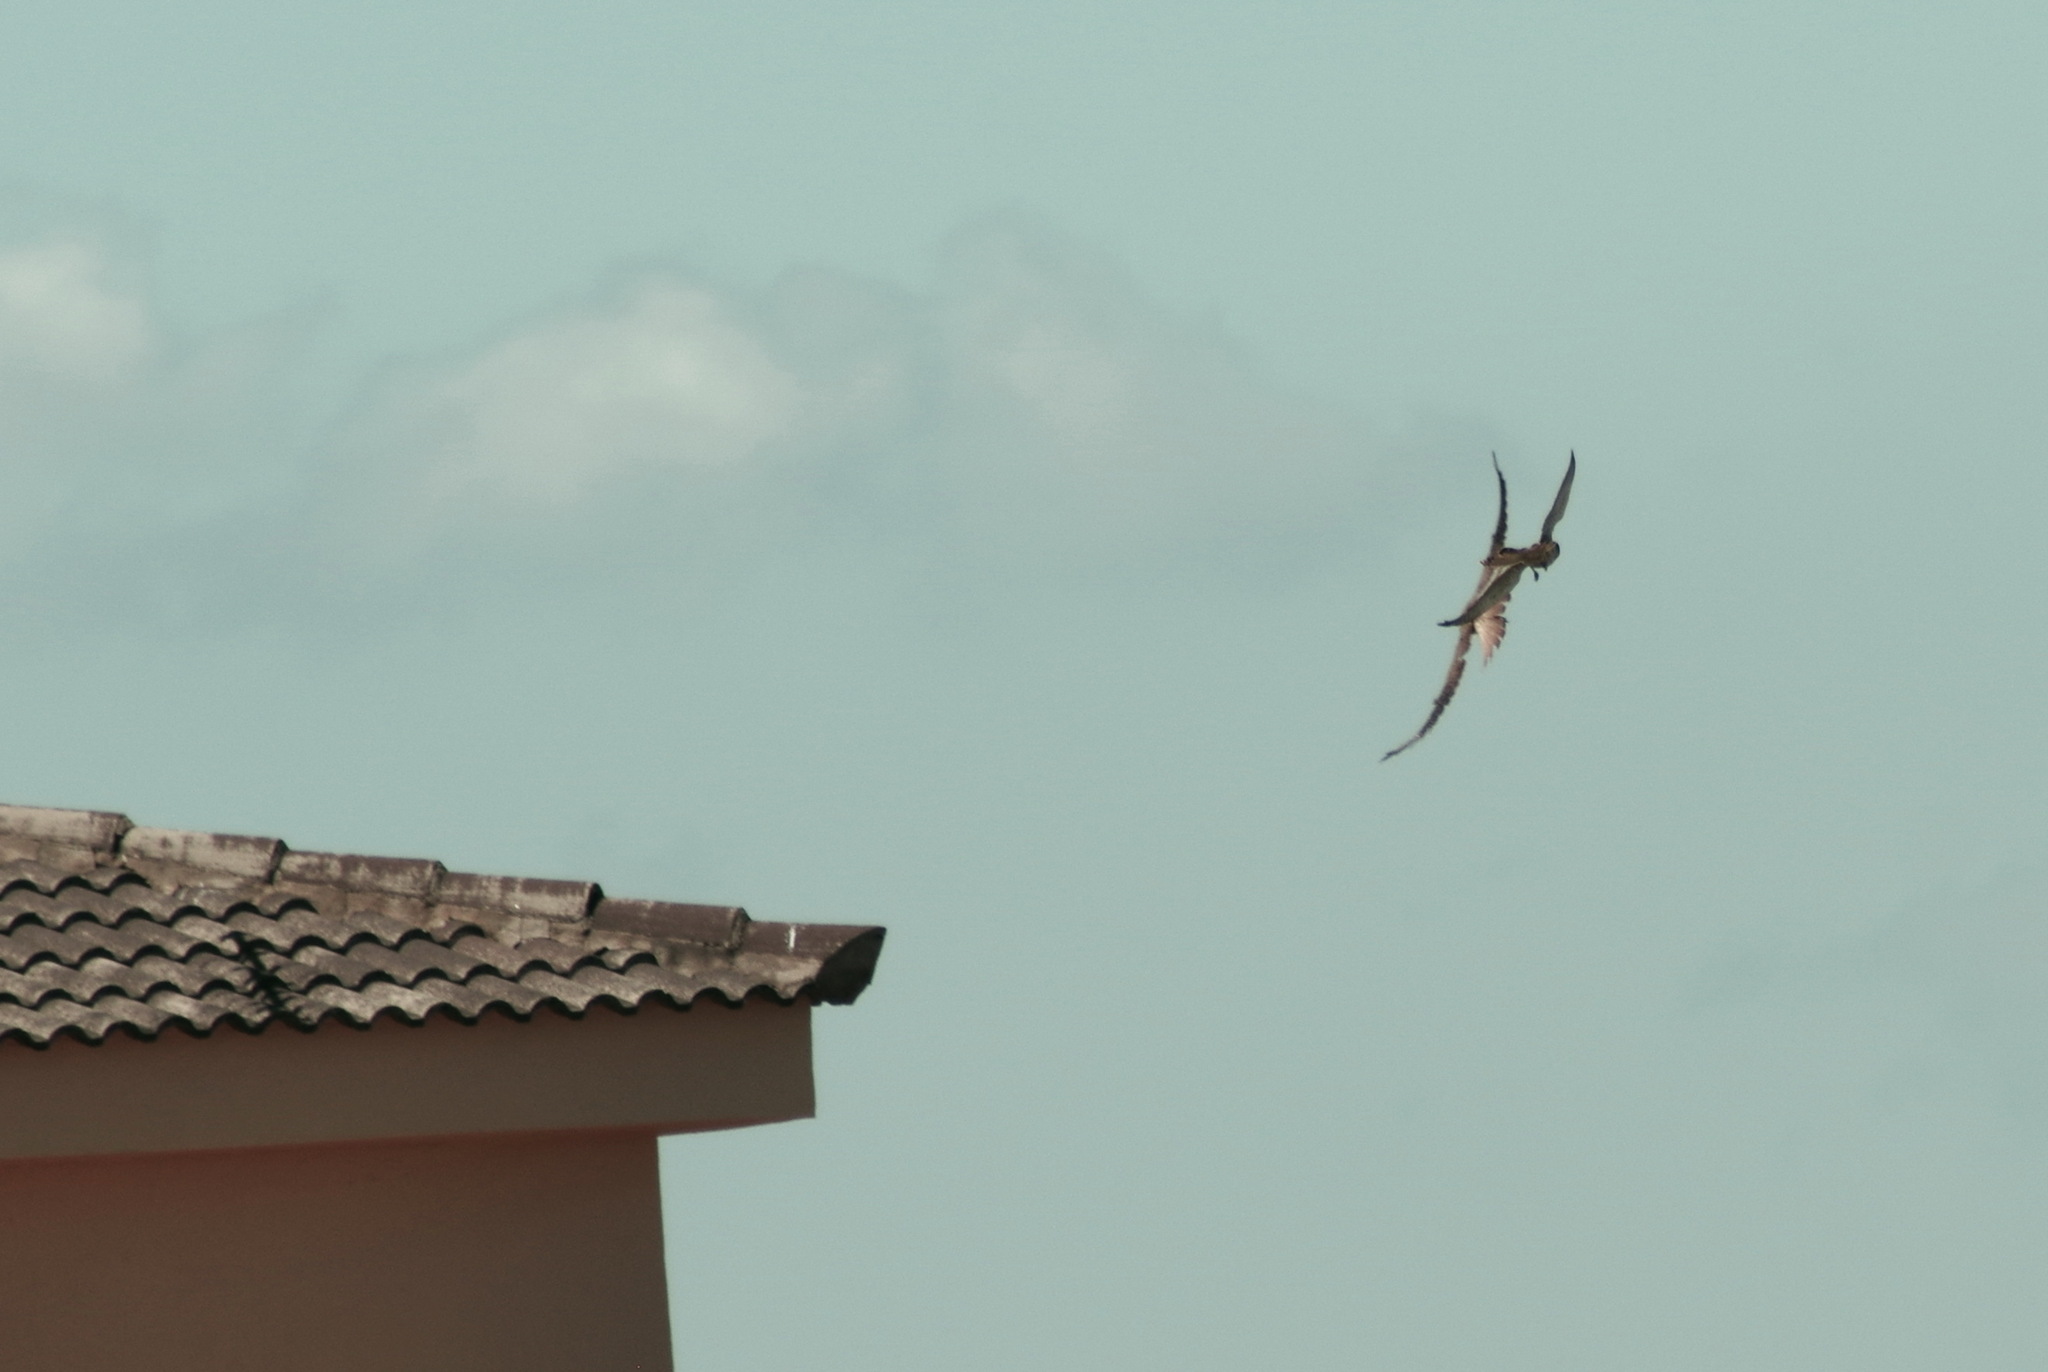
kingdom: Animalia
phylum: Chordata
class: Aves
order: Falconiformes
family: Falconidae
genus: Falco
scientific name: Falco tinnunculus
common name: Common kestrel
